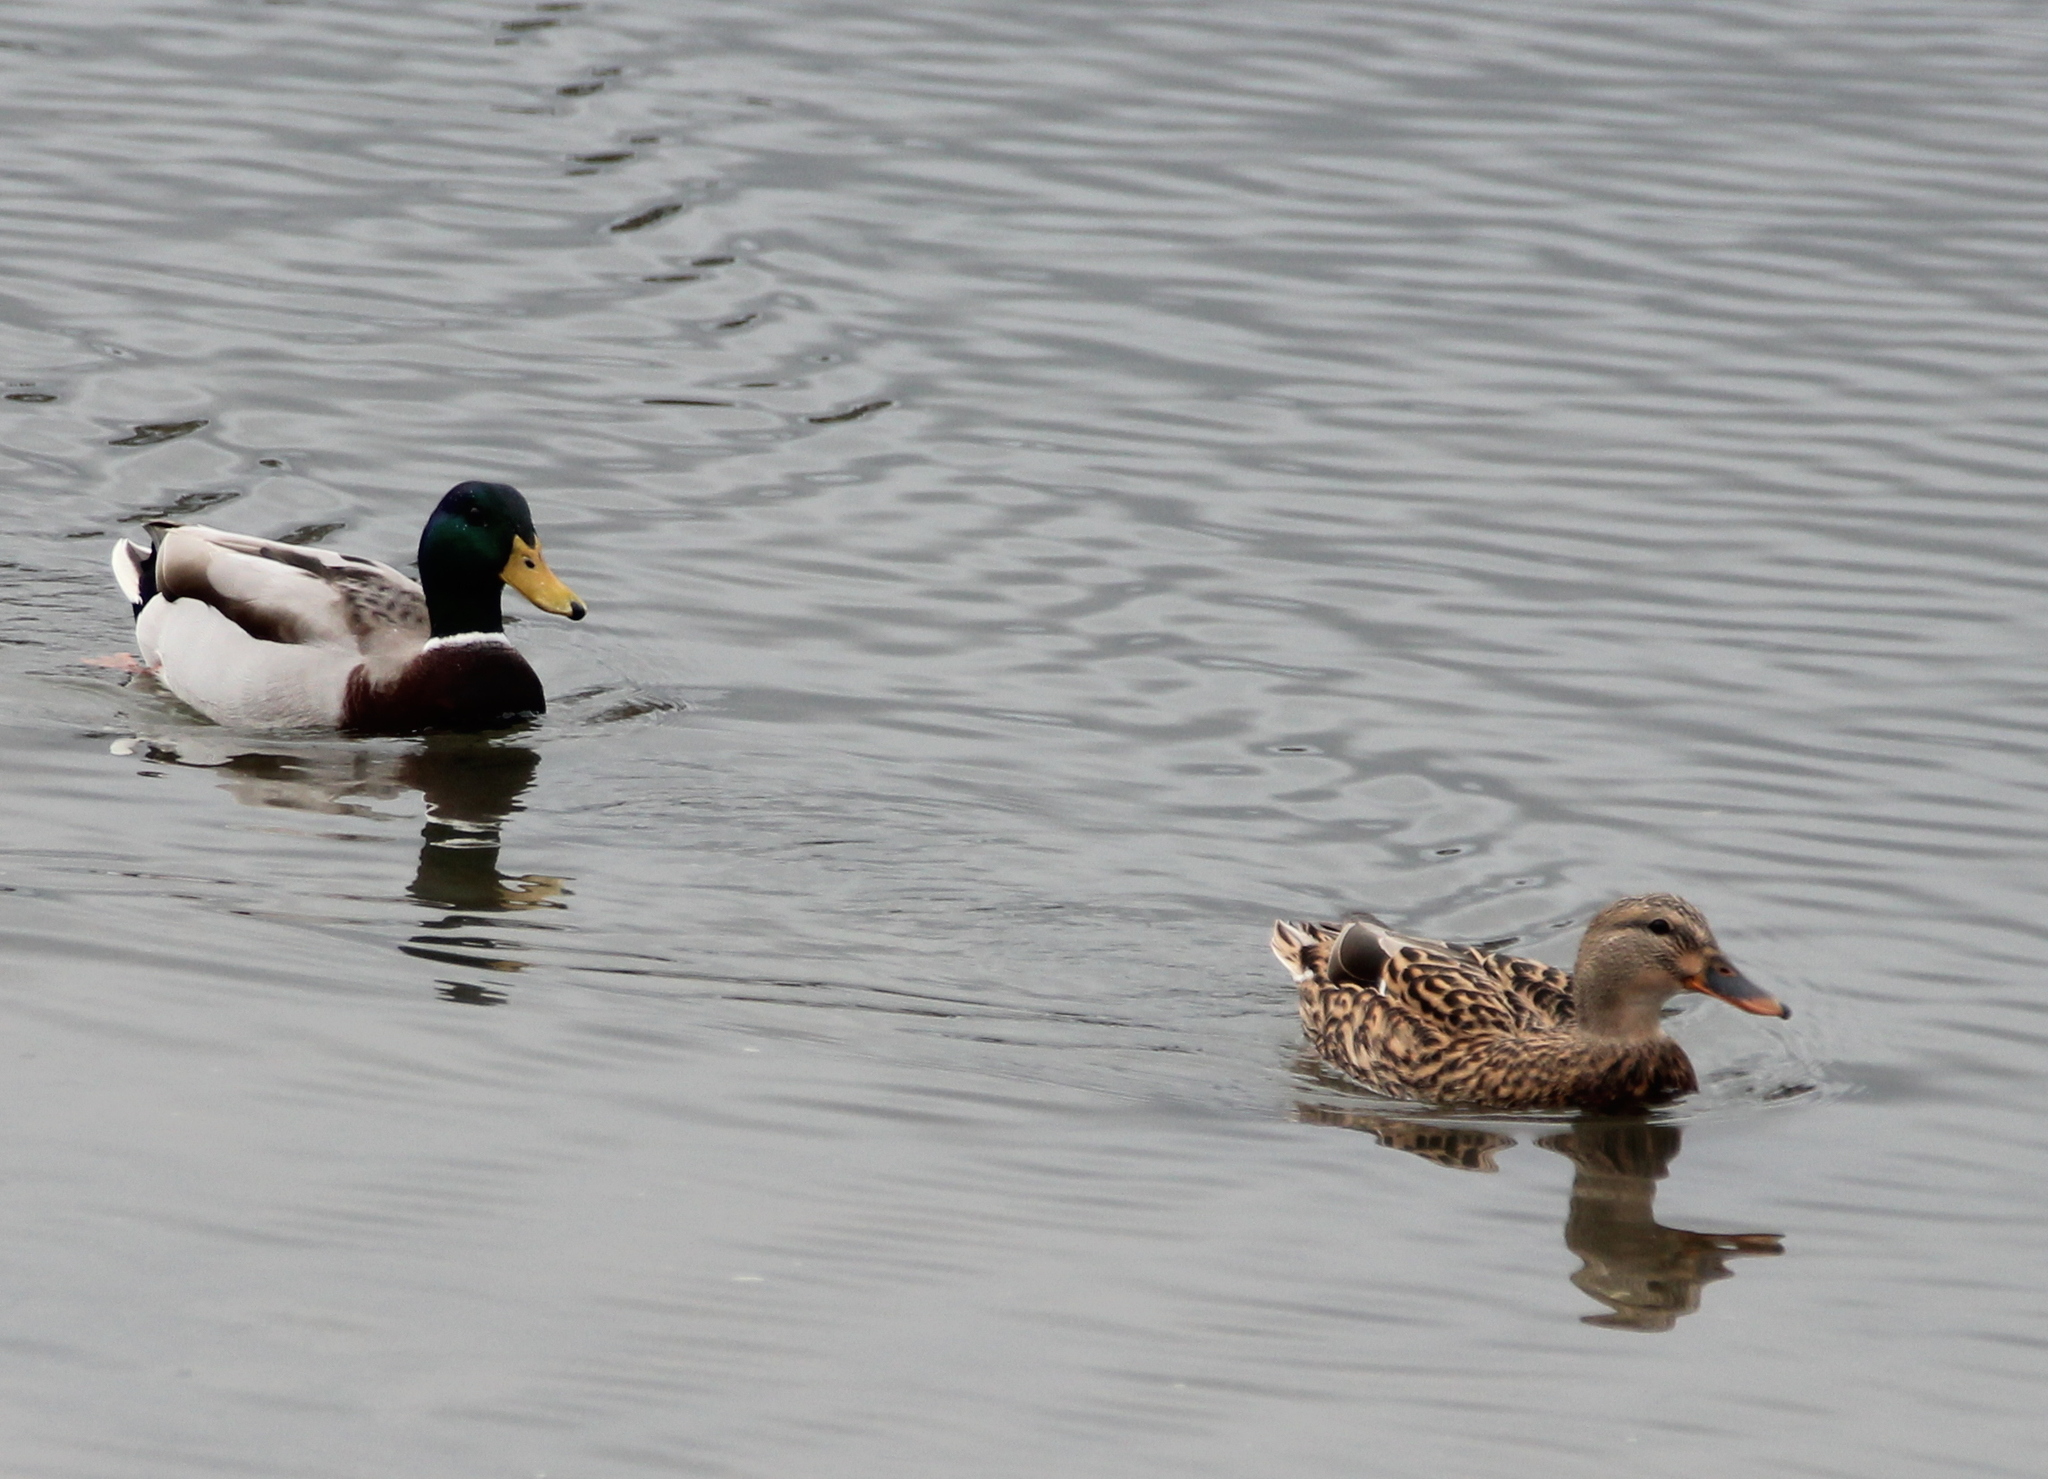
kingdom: Animalia
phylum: Chordata
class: Aves
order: Anseriformes
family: Anatidae
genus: Anas
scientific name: Anas platyrhynchos
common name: Mallard
